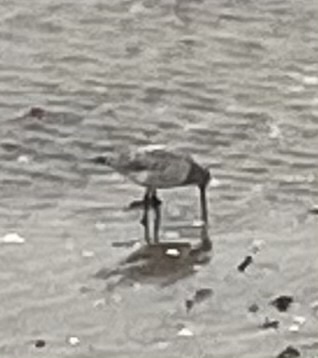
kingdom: Animalia
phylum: Chordata
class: Aves
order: Charadriiformes
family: Scolopacidae
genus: Limosa
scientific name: Limosa lapponica
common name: Bar-tailed godwit
